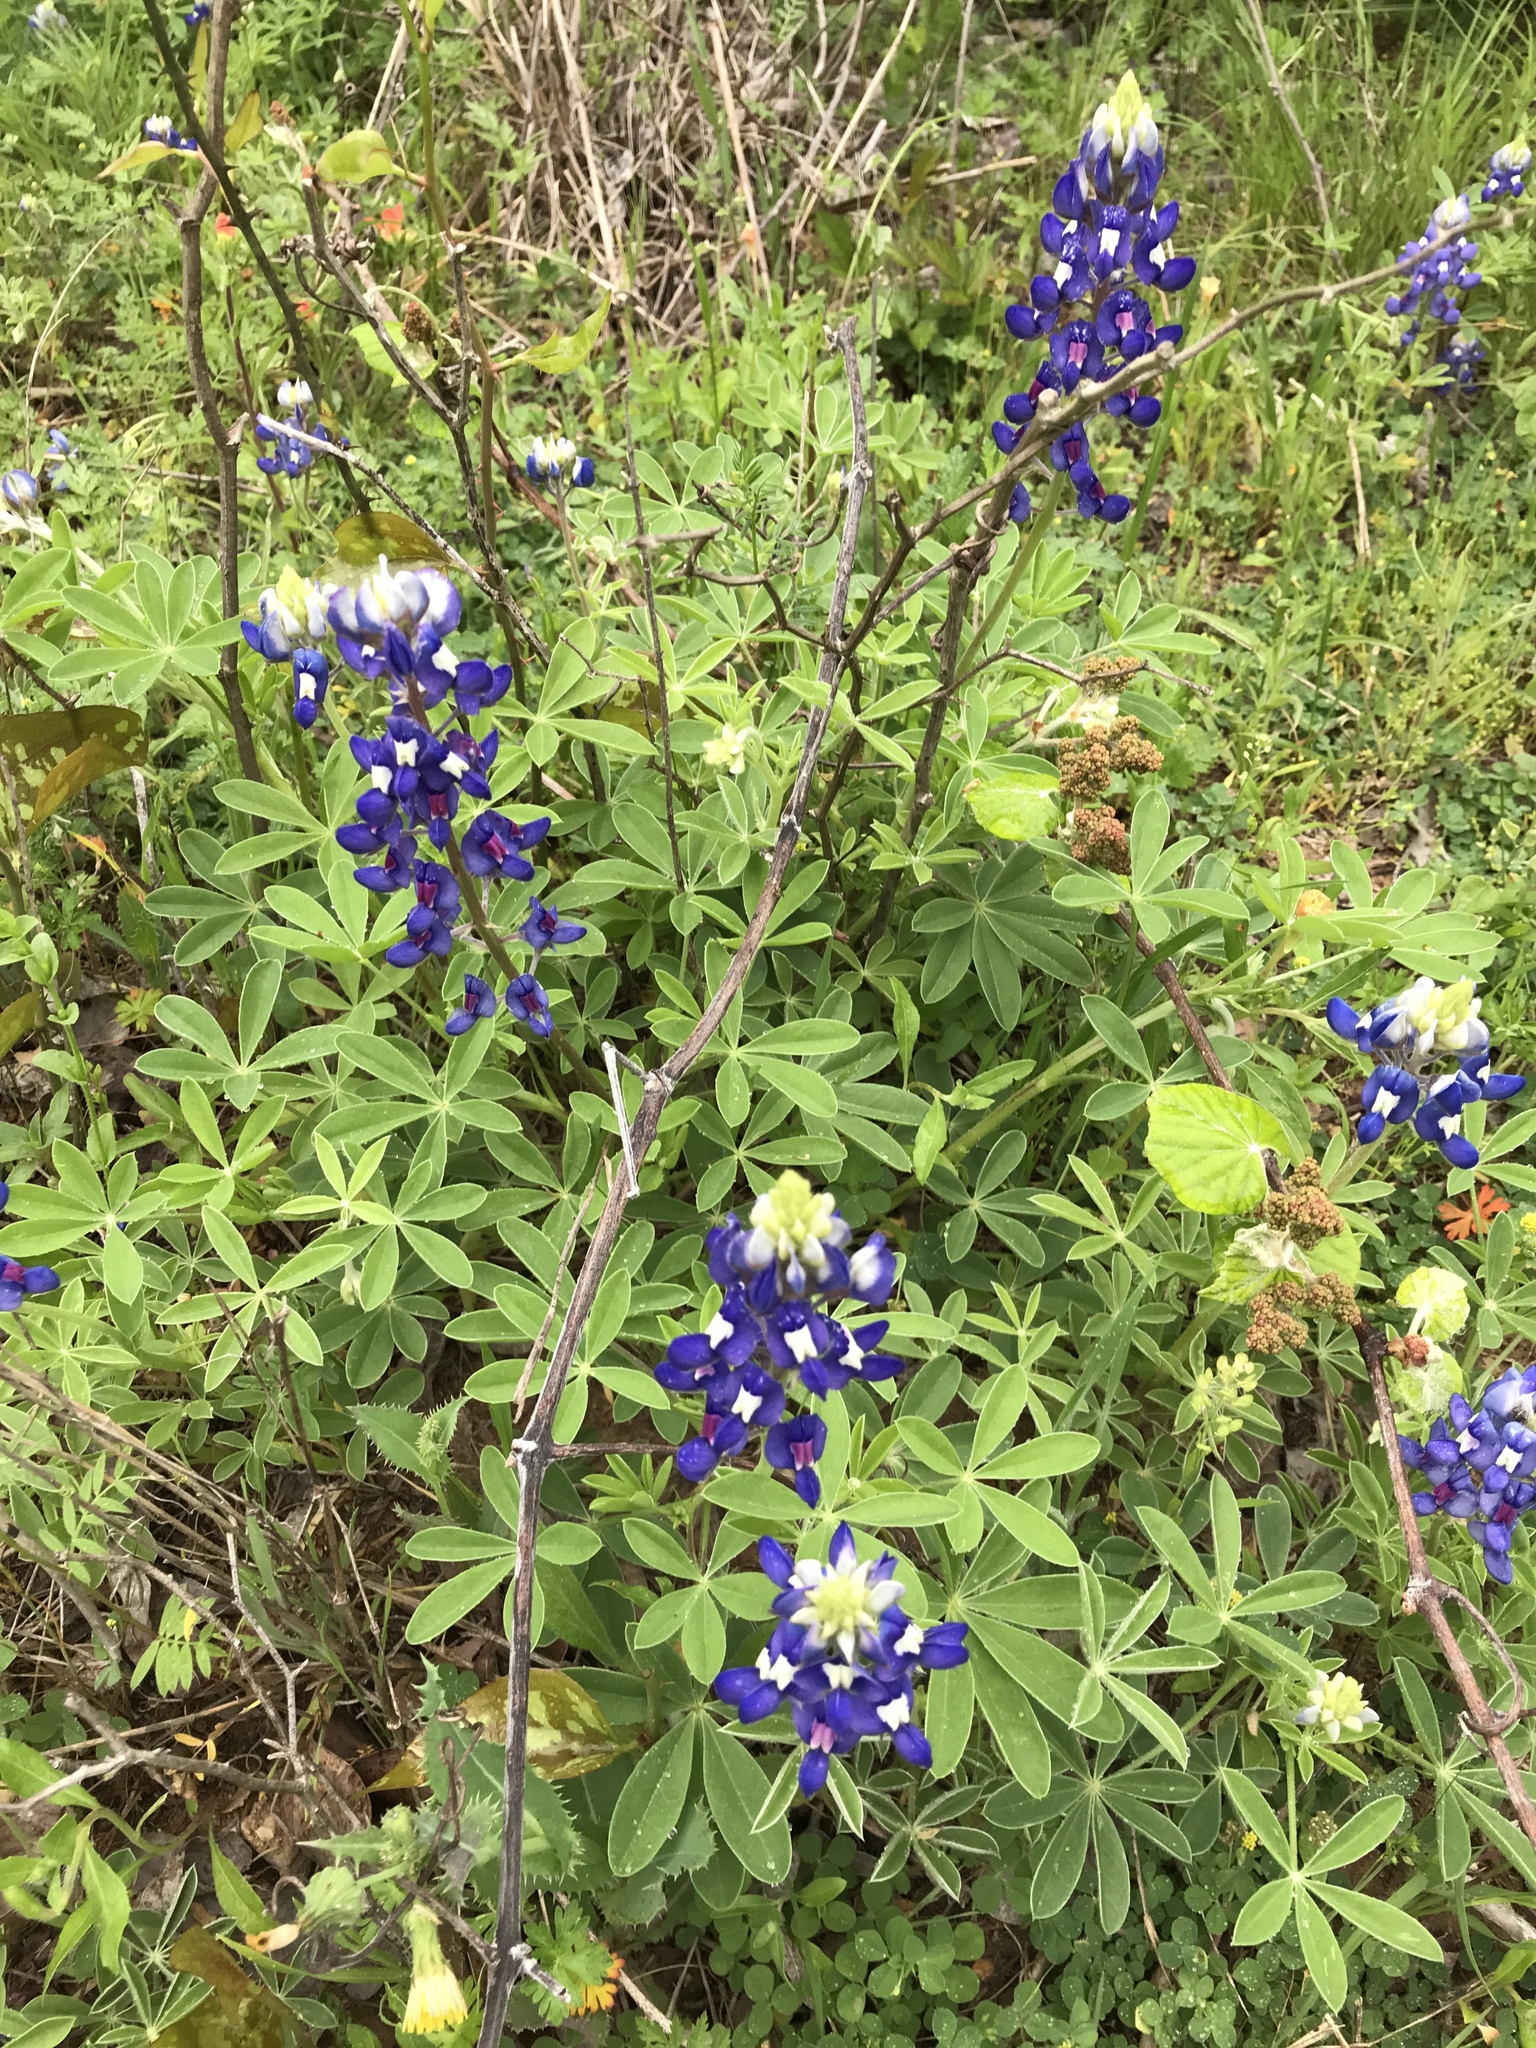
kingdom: Plantae
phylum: Tracheophyta
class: Magnoliopsida
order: Fabales
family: Fabaceae
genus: Lupinus
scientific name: Lupinus texensis
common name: Texas bluebonnet
